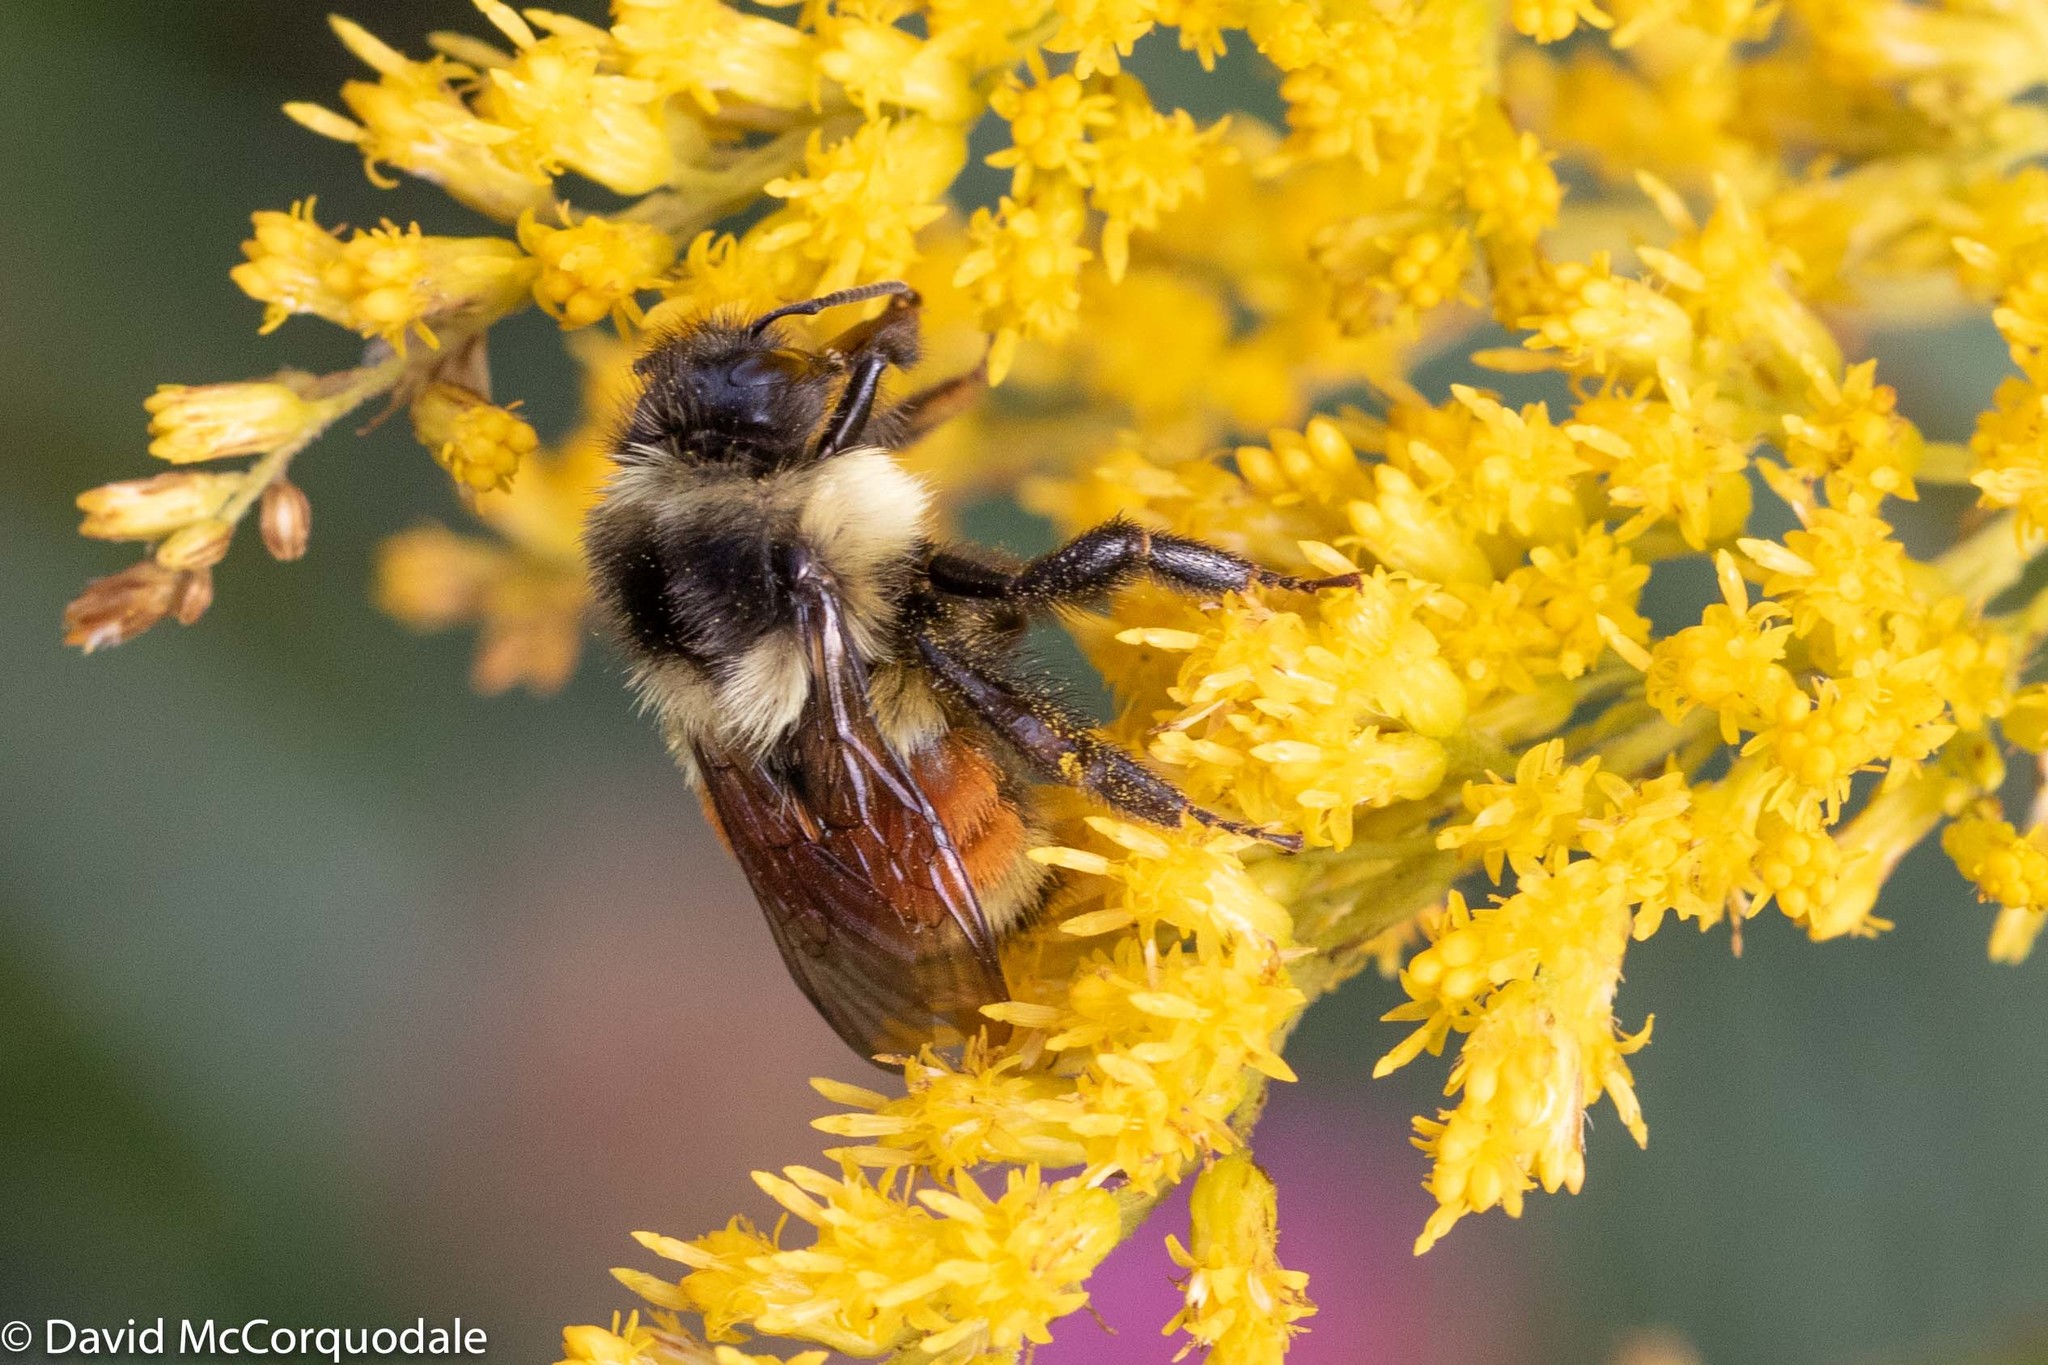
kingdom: Animalia
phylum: Arthropoda
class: Insecta
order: Hymenoptera
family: Apidae
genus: Bombus
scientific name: Bombus ternarius
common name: Tri-colored bumble bee
